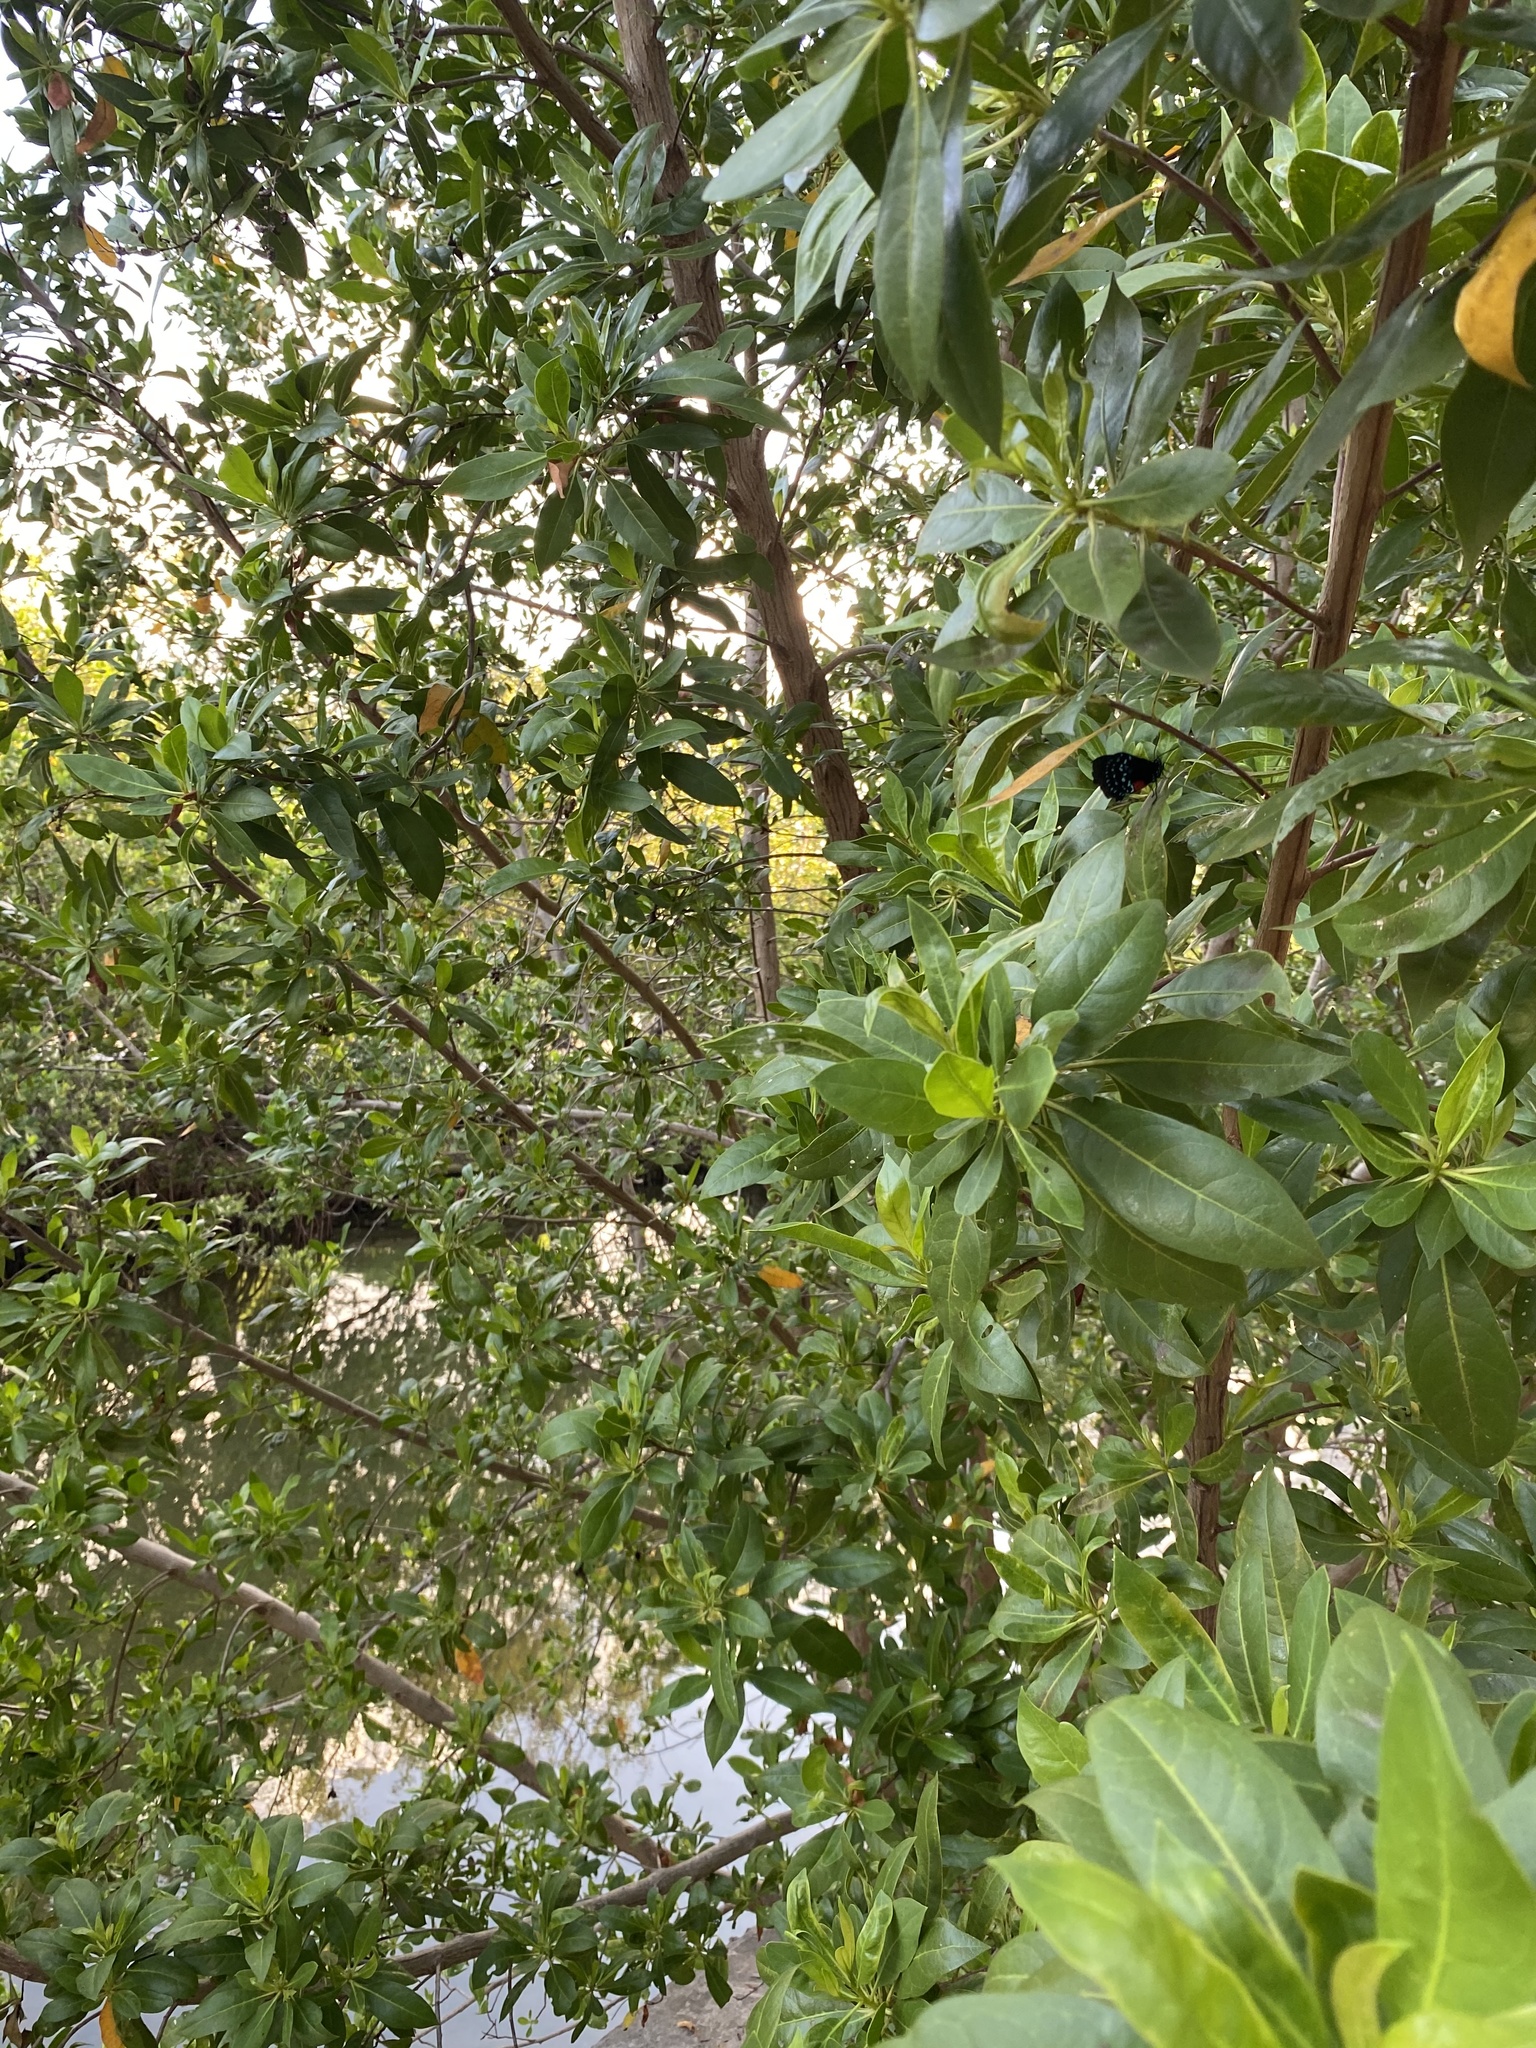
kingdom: Plantae
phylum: Tracheophyta
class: Magnoliopsida
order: Myrtales
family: Combretaceae
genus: Conocarpus
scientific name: Conocarpus erectus
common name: Button mangrove
